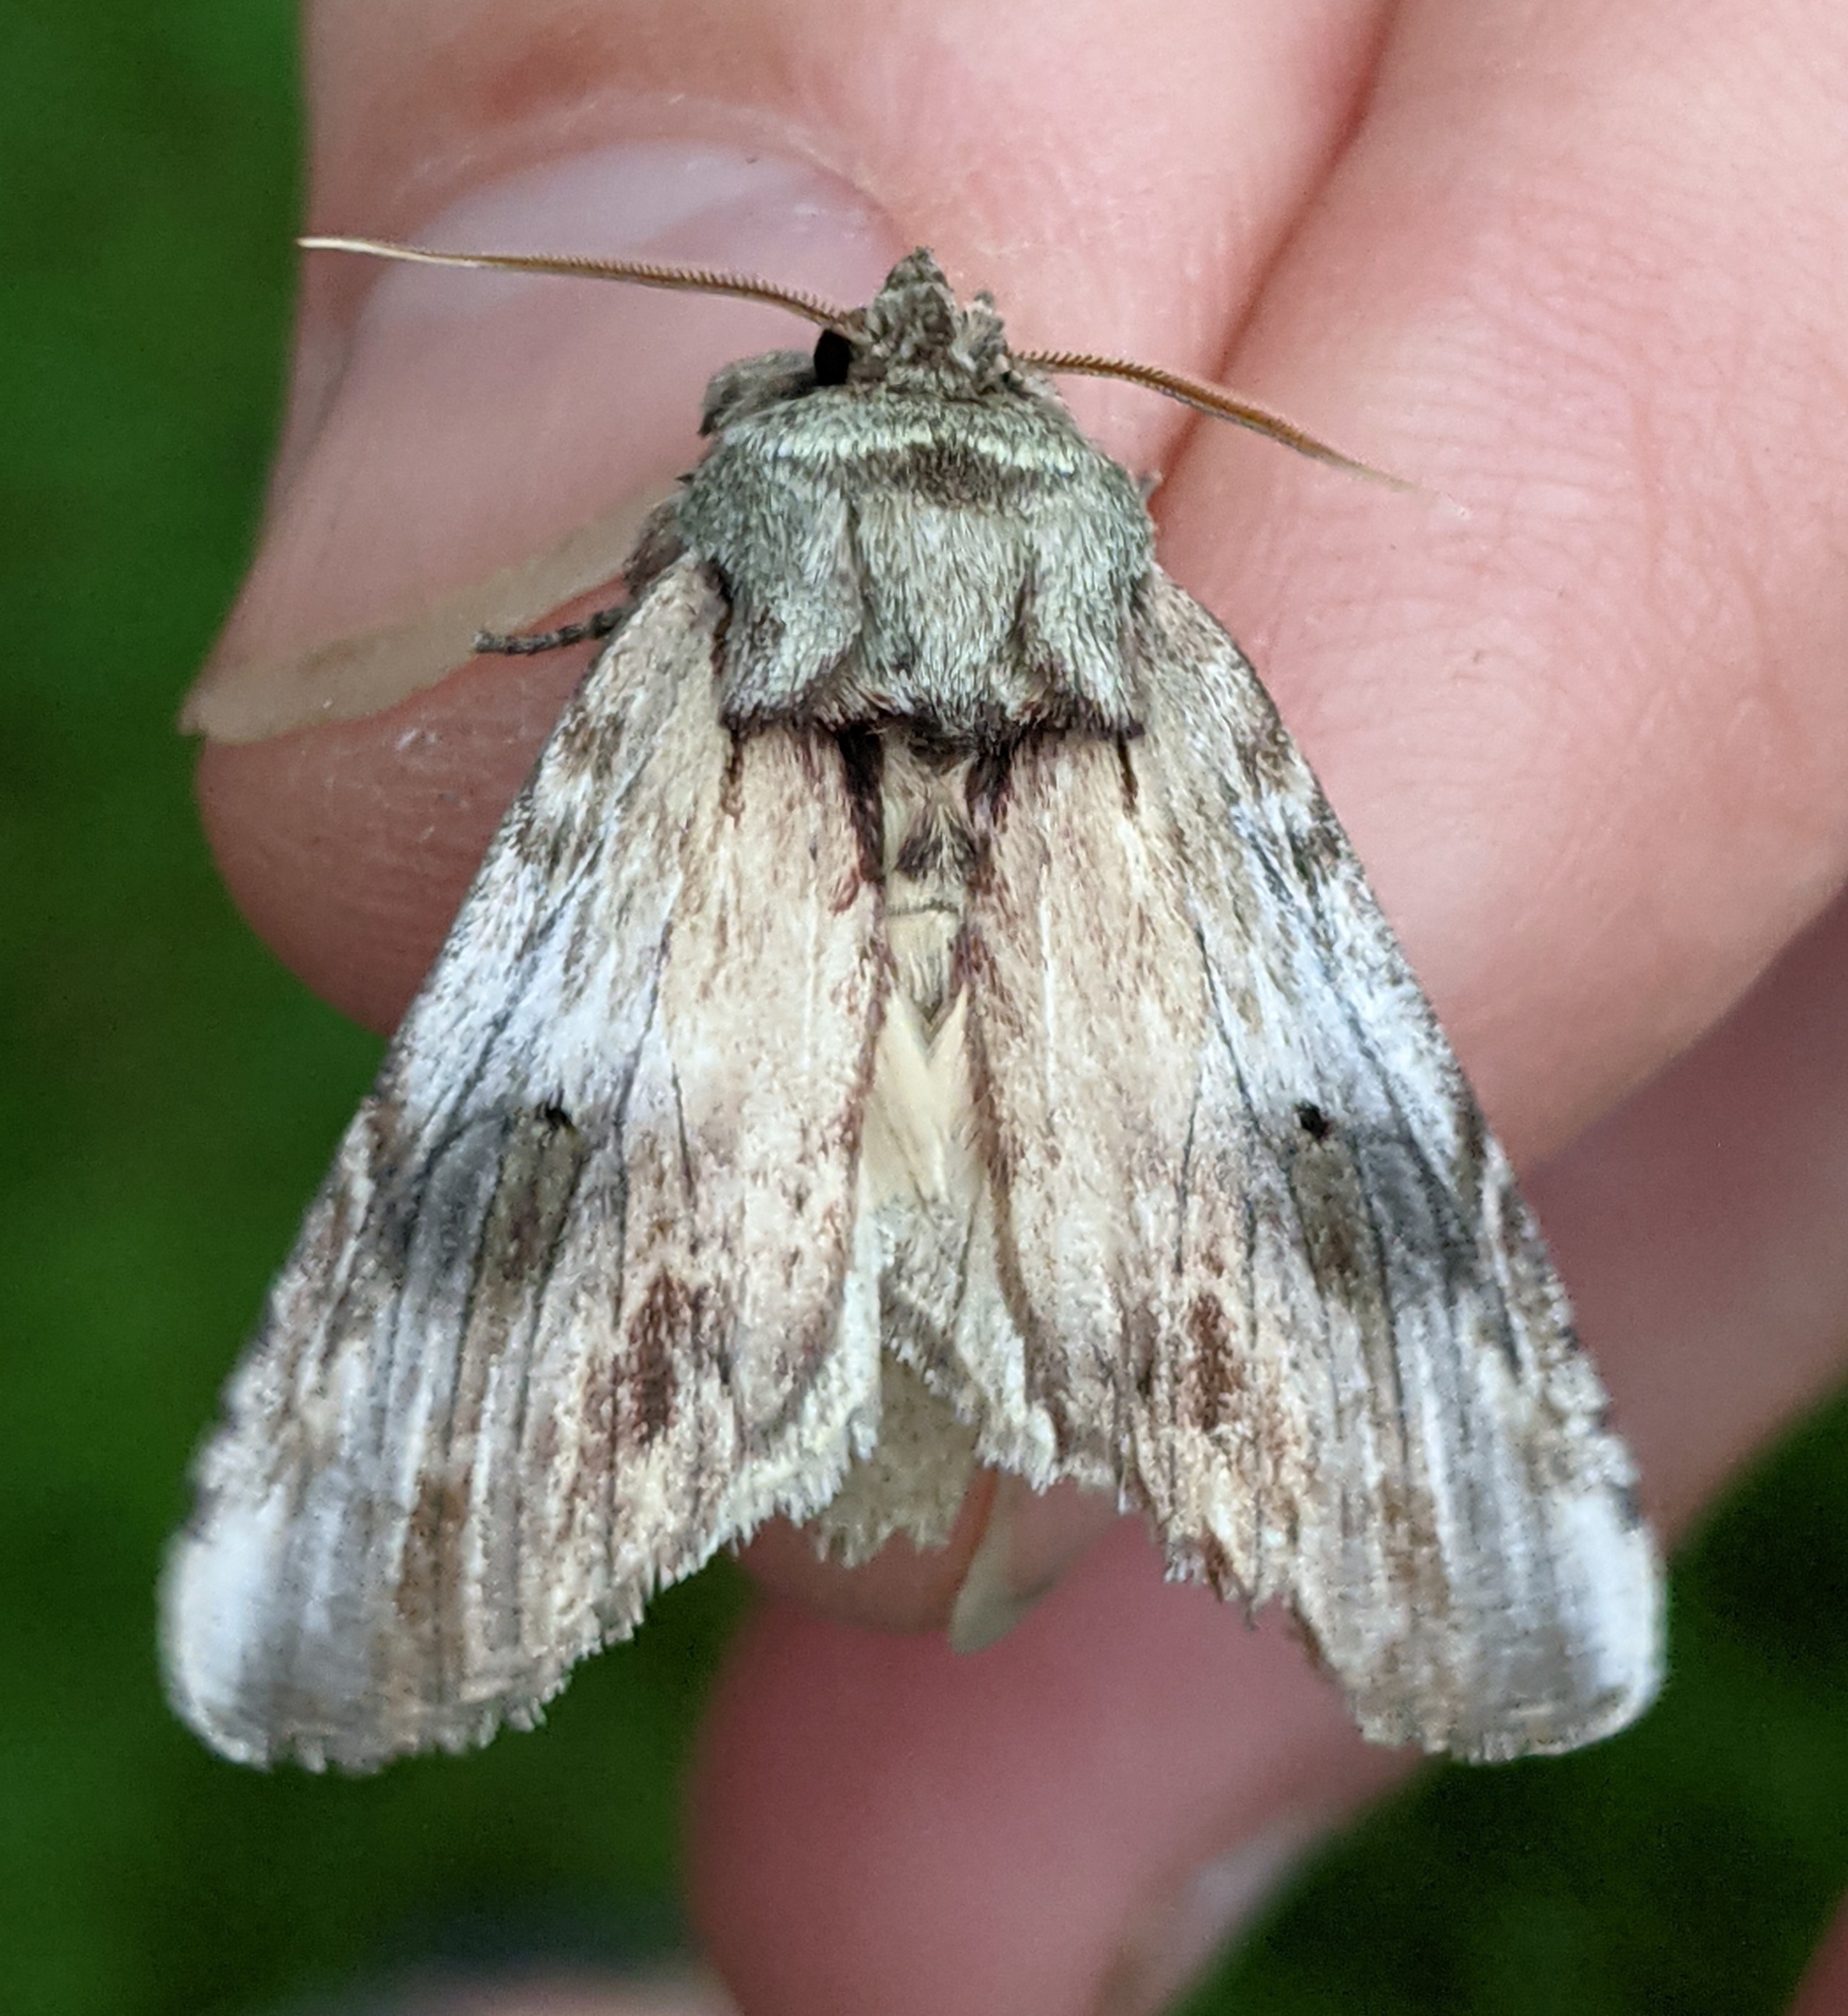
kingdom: Animalia
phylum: Arthropoda
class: Insecta
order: Lepidoptera
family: Notodontidae
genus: Schizura
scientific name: Schizura
